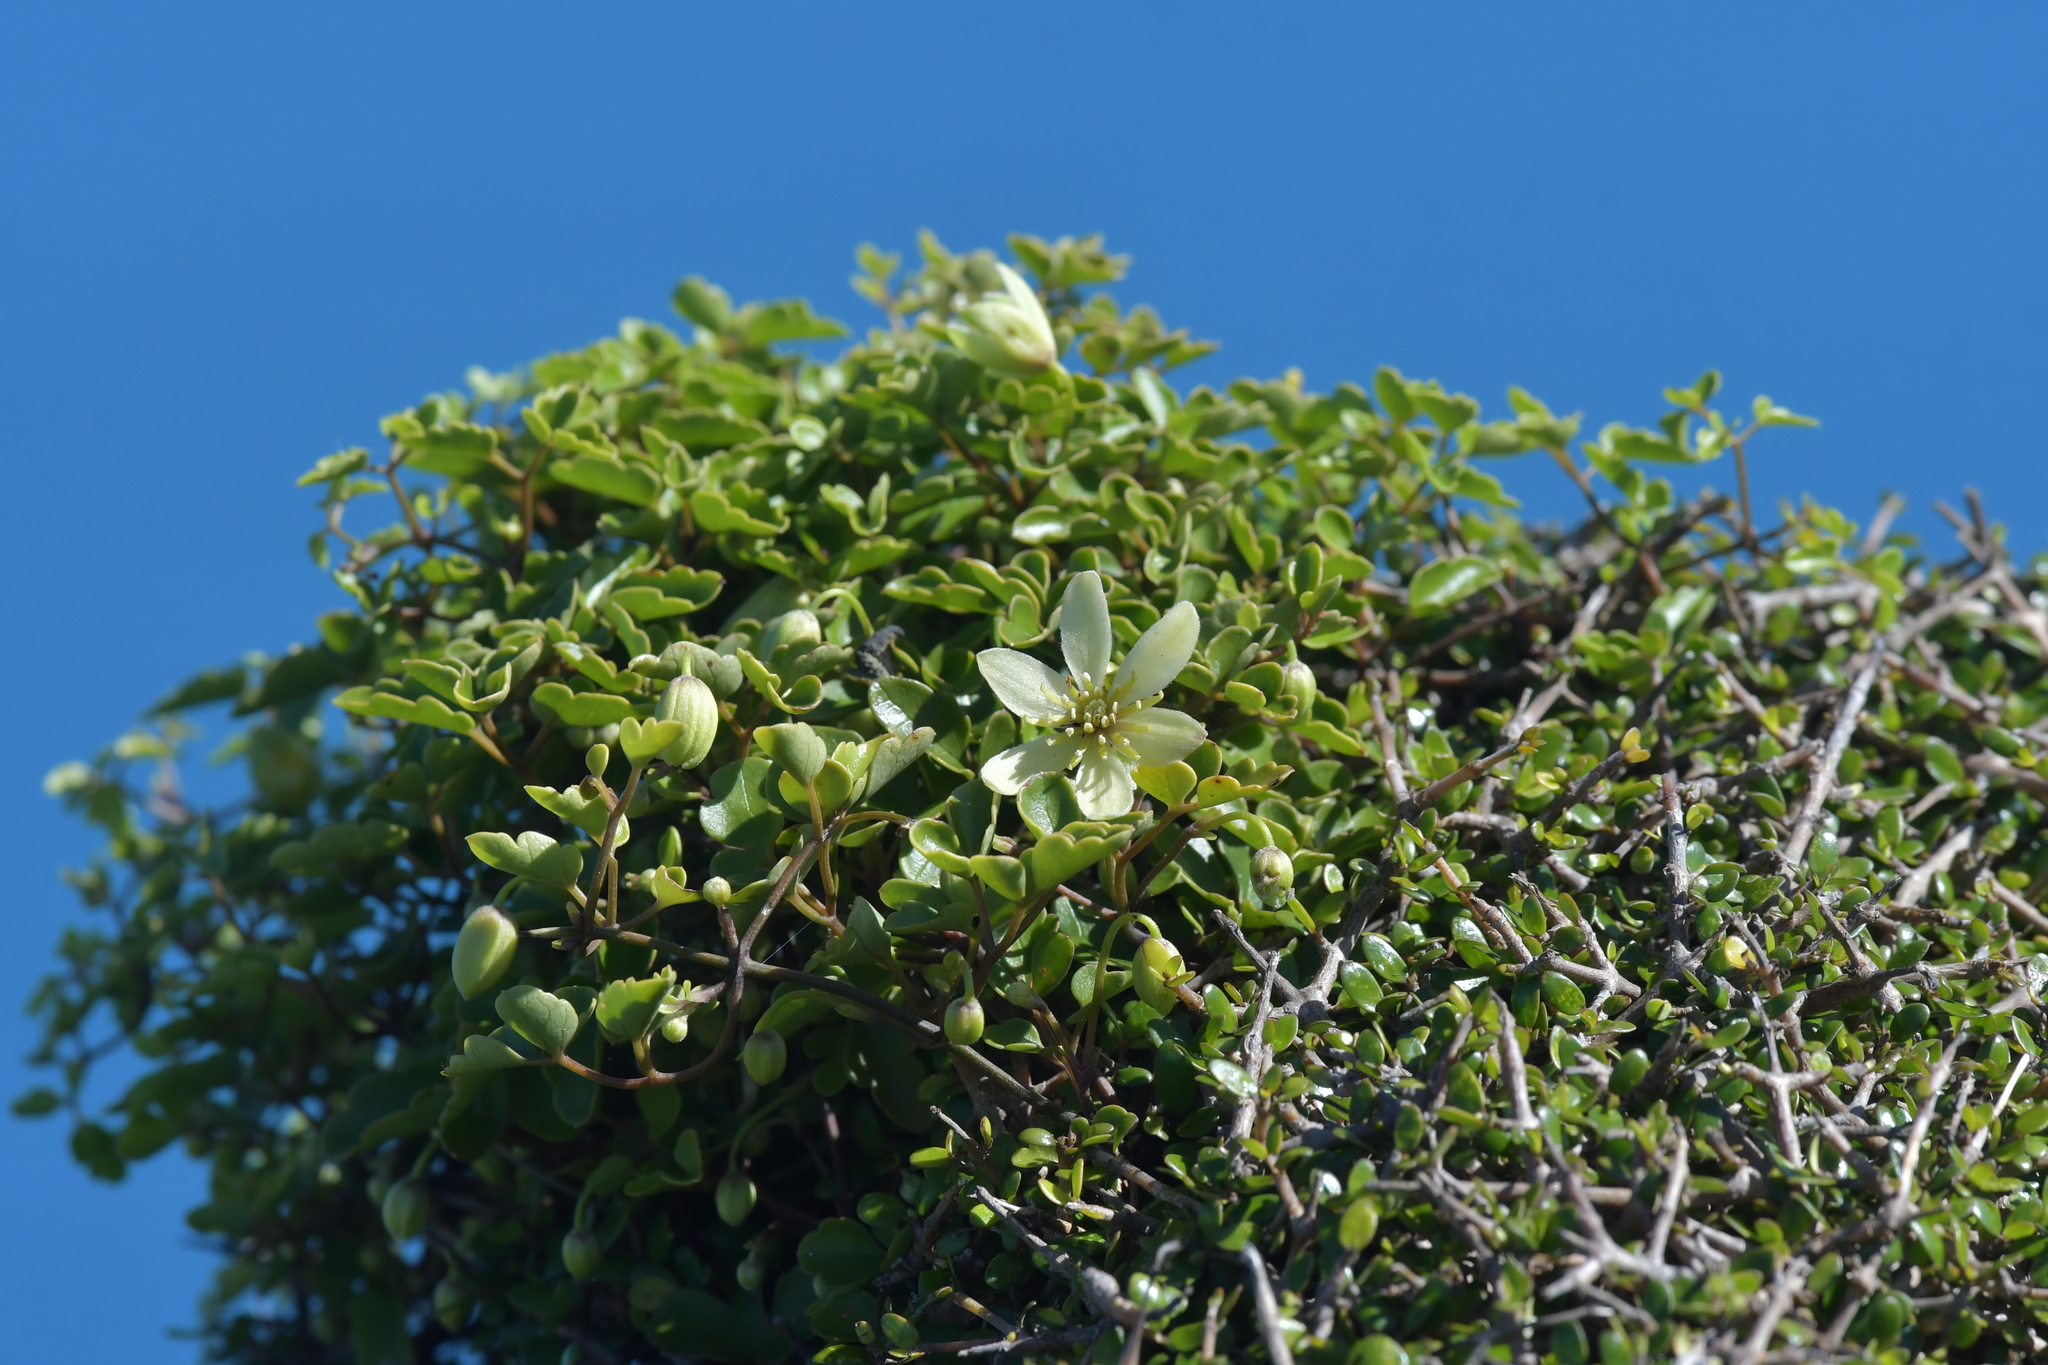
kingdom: Plantae
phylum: Tracheophyta
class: Magnoliopsida
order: Ranunculales
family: Ranunculaceae
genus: Clematis
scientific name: Clematis forsteri
